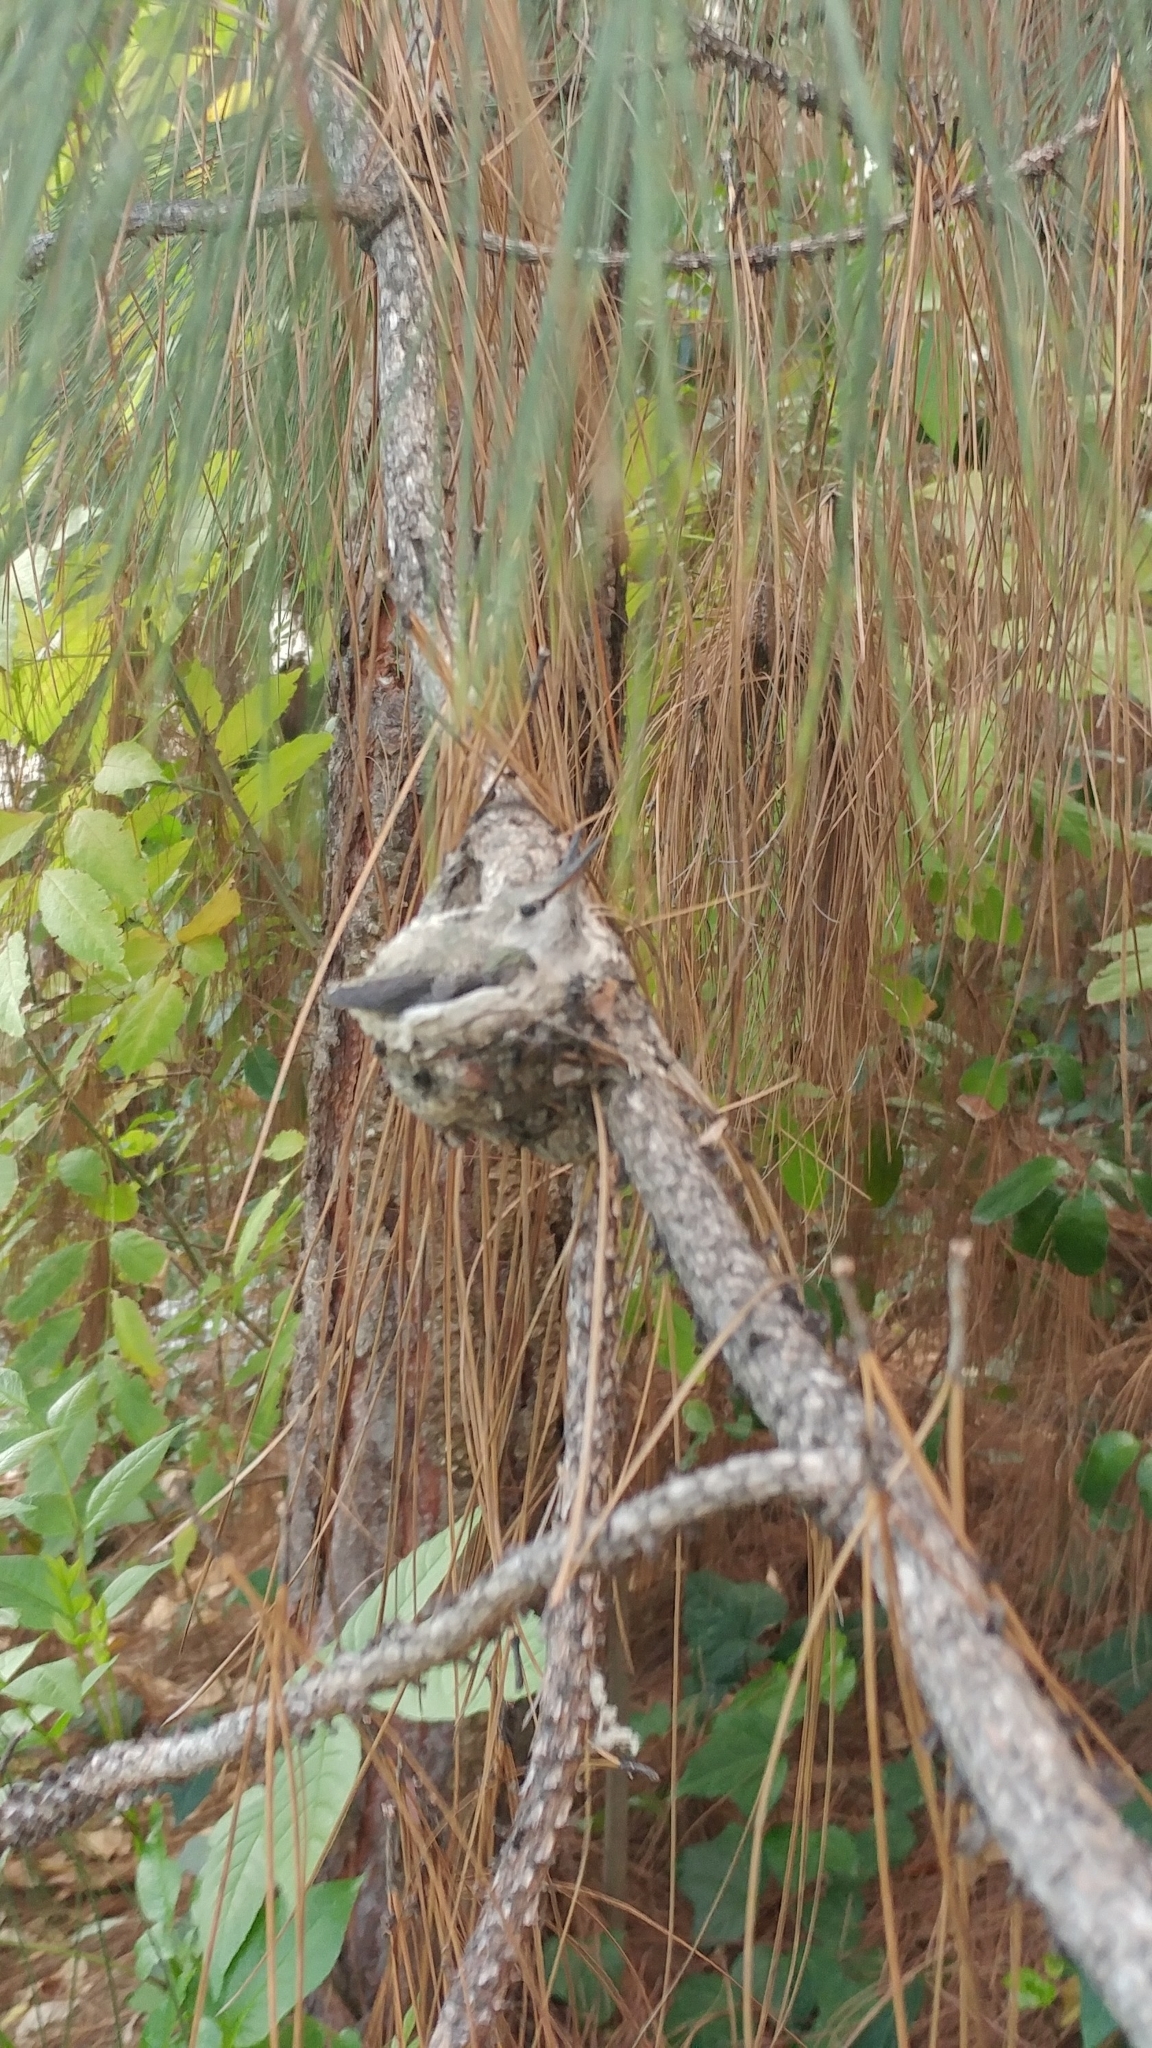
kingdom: Animalia
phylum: Chordata
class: Aves
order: Apodiformes
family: Trochilidae
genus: Calypte
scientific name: Calypte anna
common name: Anna's hummingbird
